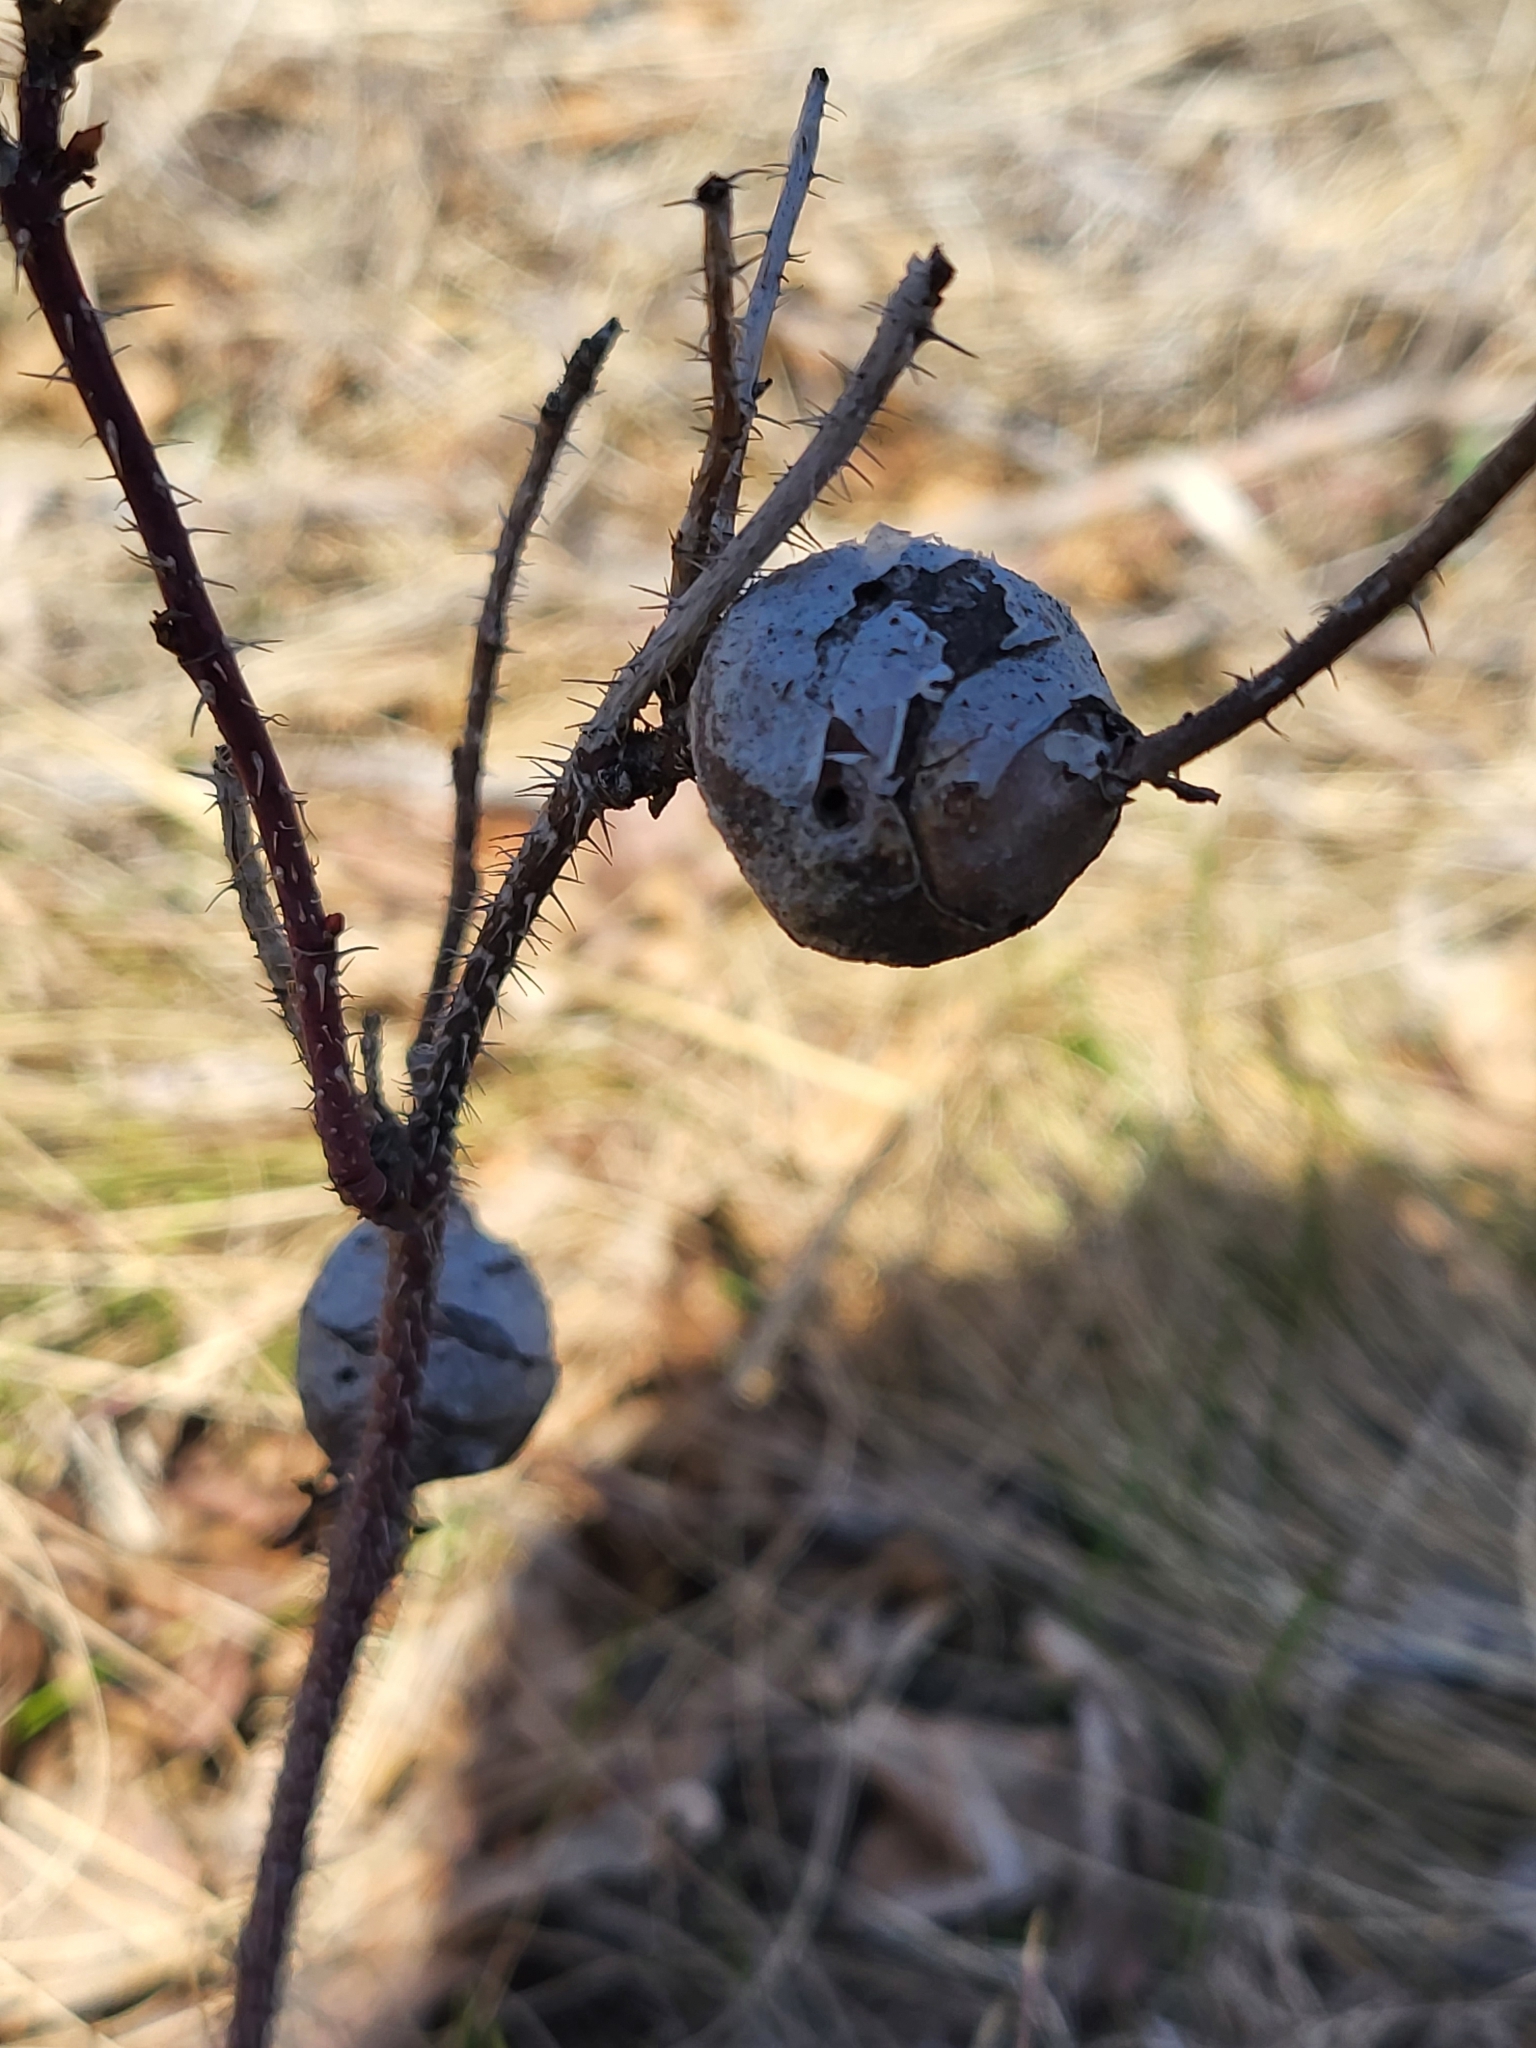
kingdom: Animalia
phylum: Arthropoda
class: Insecta
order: Hymenoptera
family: Cynipidae
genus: Diplolepis
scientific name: Diplolepis spinosa
